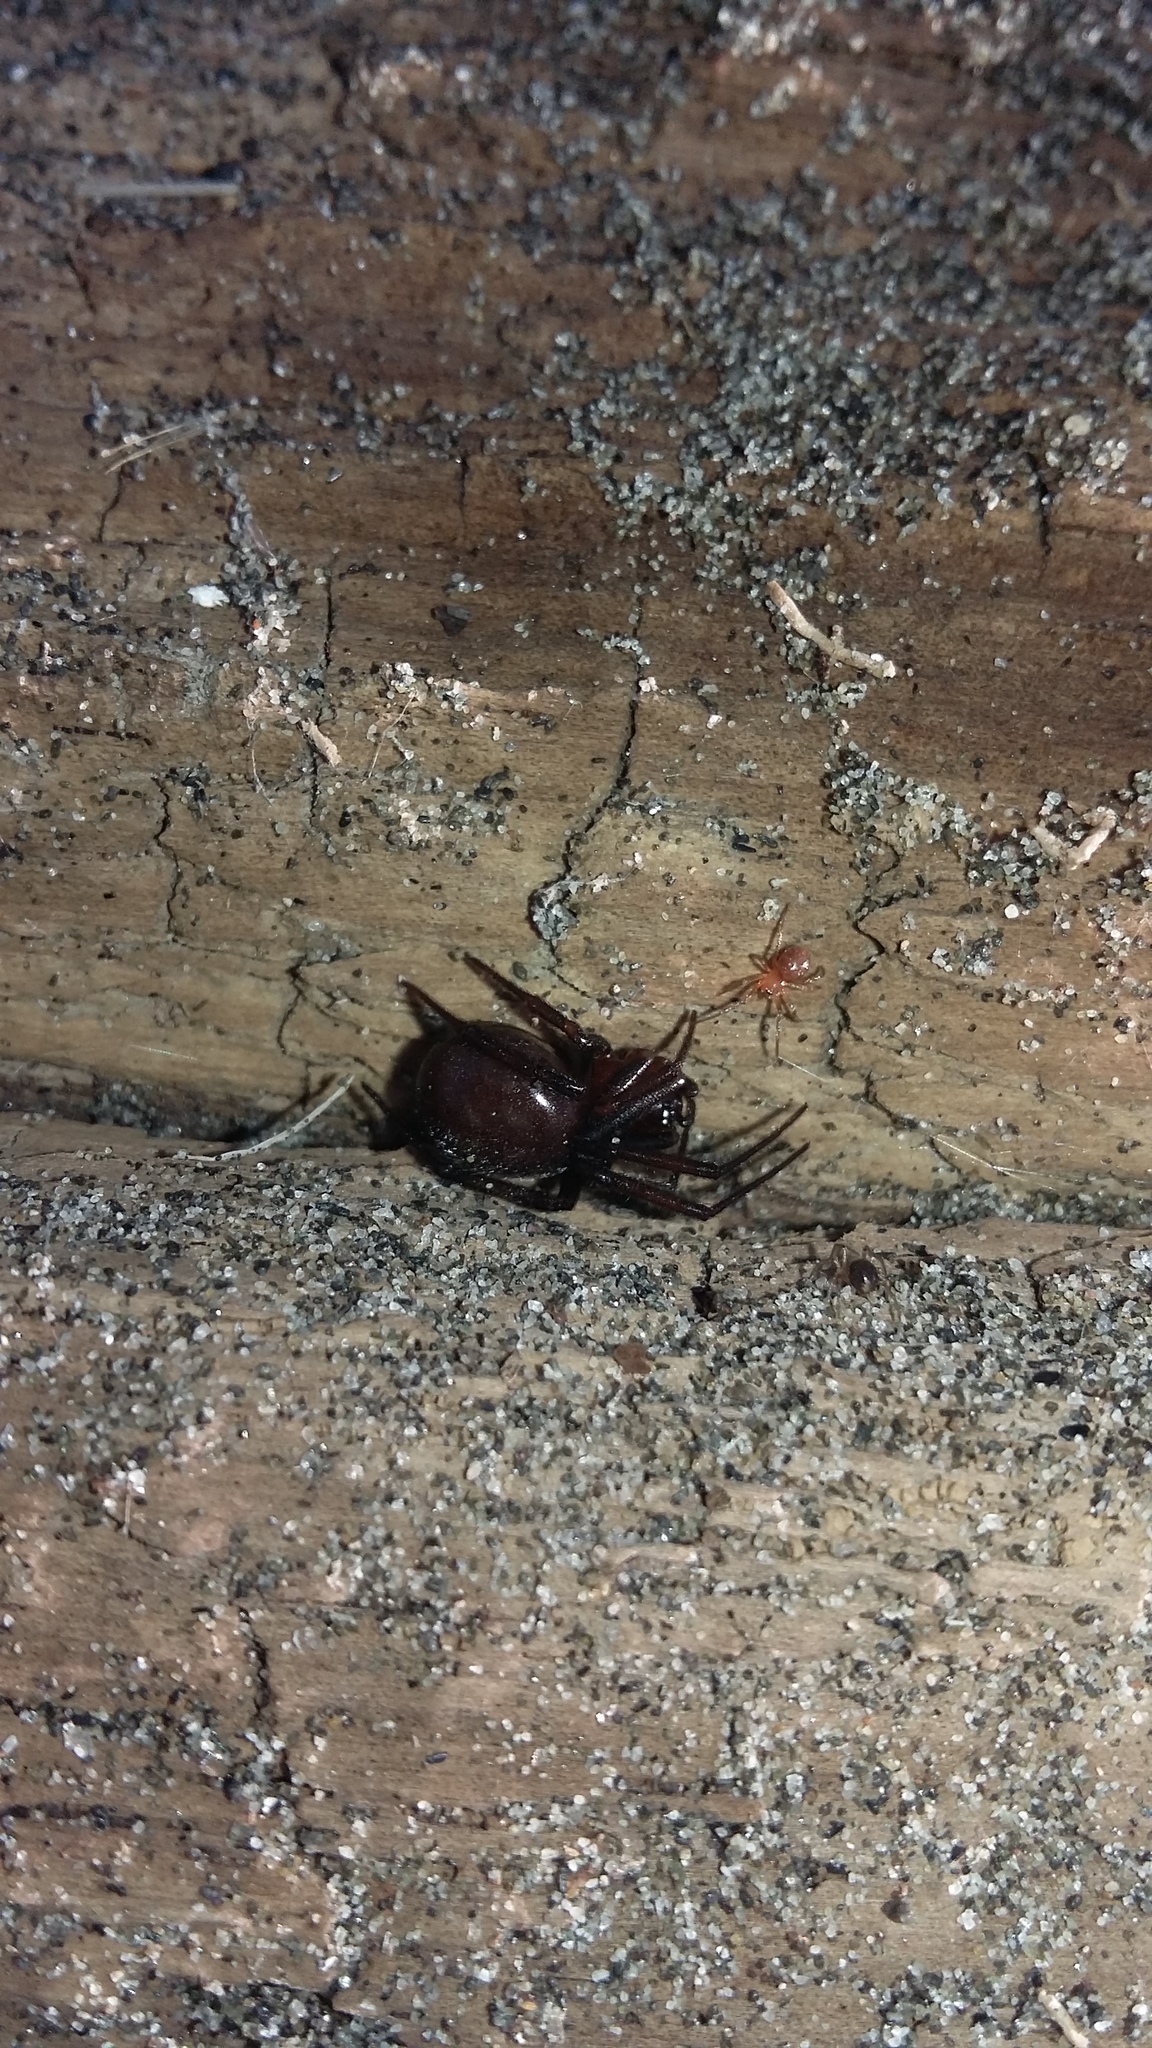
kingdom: Animalia
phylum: Arthropoda
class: Arachnida
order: Araneae
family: Theridiidae
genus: Steatoda
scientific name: Steatoda capensis
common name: Cobweb weaver
